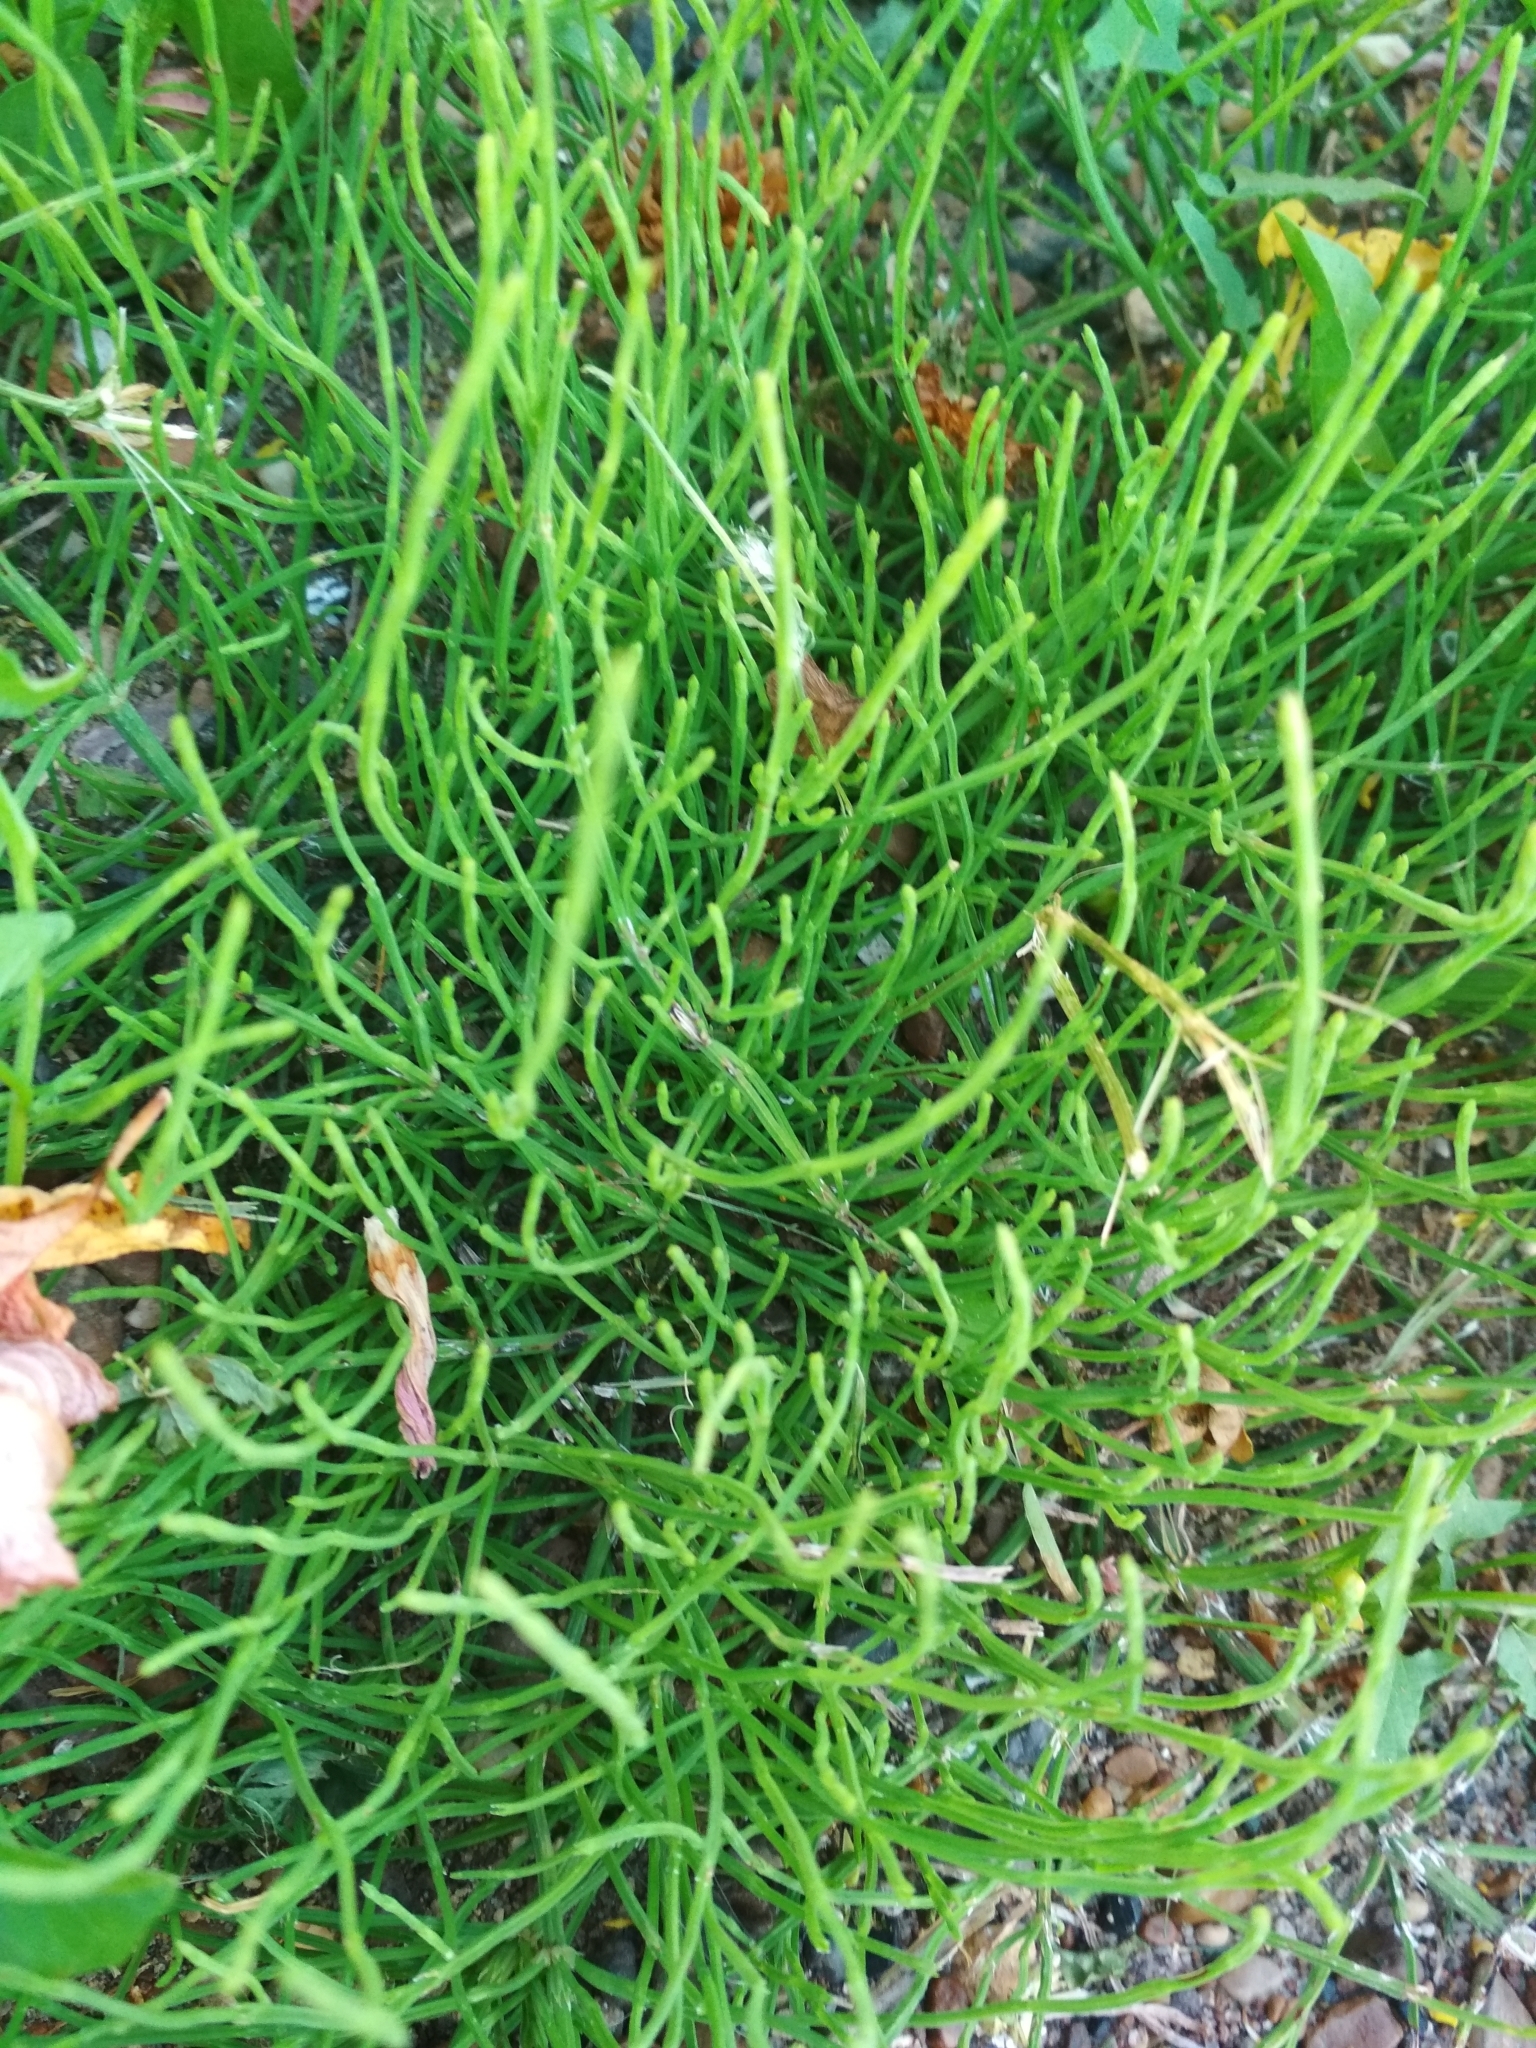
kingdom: Plantae
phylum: Tracheophyta
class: Polypodiopsida
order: Equisetales
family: Equisetaceae
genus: Equisetum
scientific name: Equisetum arvense
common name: Field horsetail
